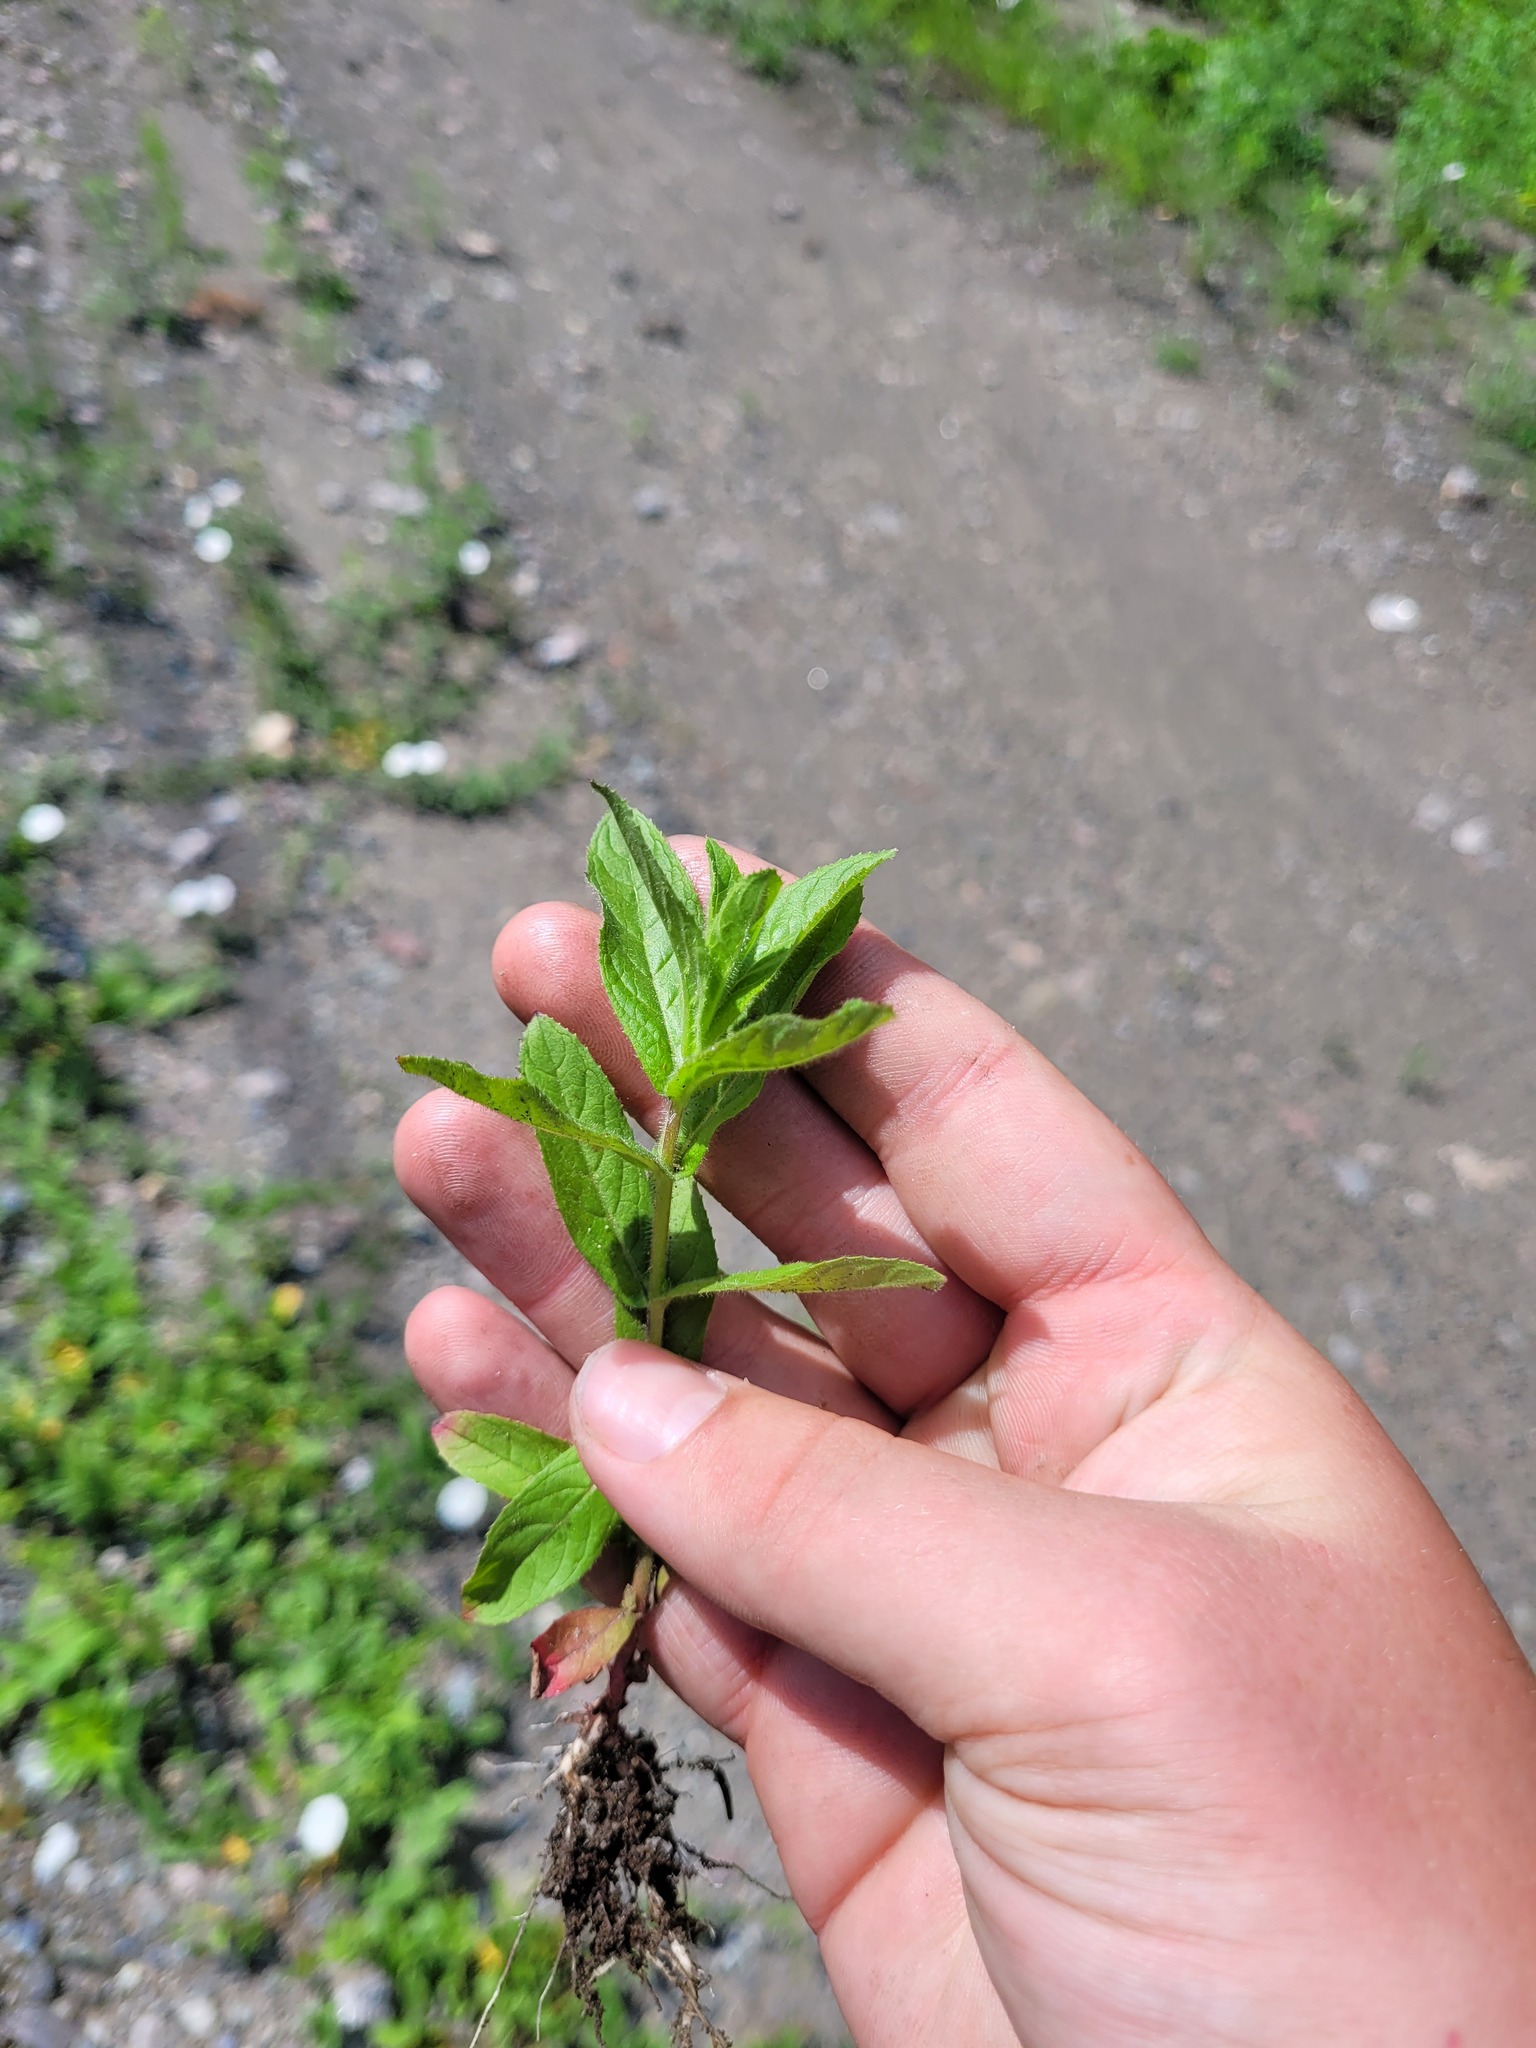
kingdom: Plantae
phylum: Tracheophyta
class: Magnoliopsida
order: Myrtales
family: Onagraceae
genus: Epilobium
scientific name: Epilobium hirsutum
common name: Great willowherb
